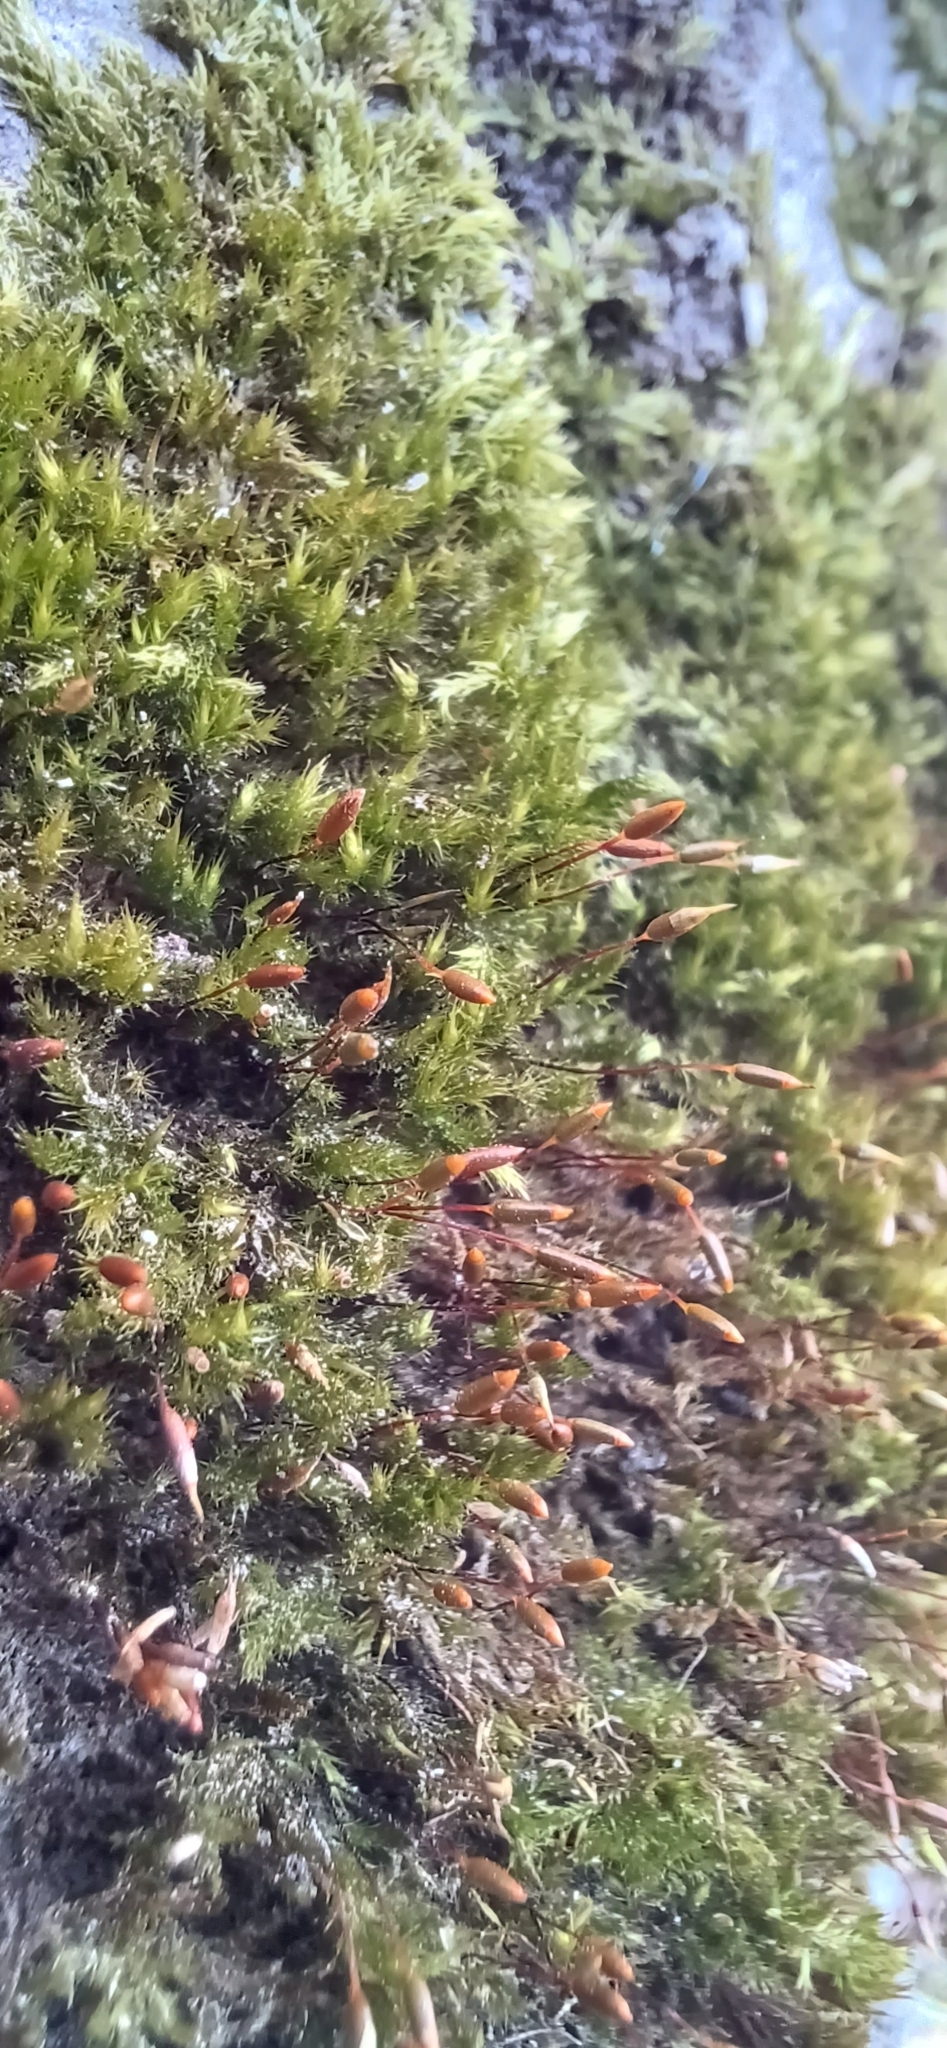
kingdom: Plantae
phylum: Bryophyta
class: Bryopsida
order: Hypnales
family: Pylaisiaceae
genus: Pylaisia
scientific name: Pylaisia polyantha
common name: Many-flowered leskea
